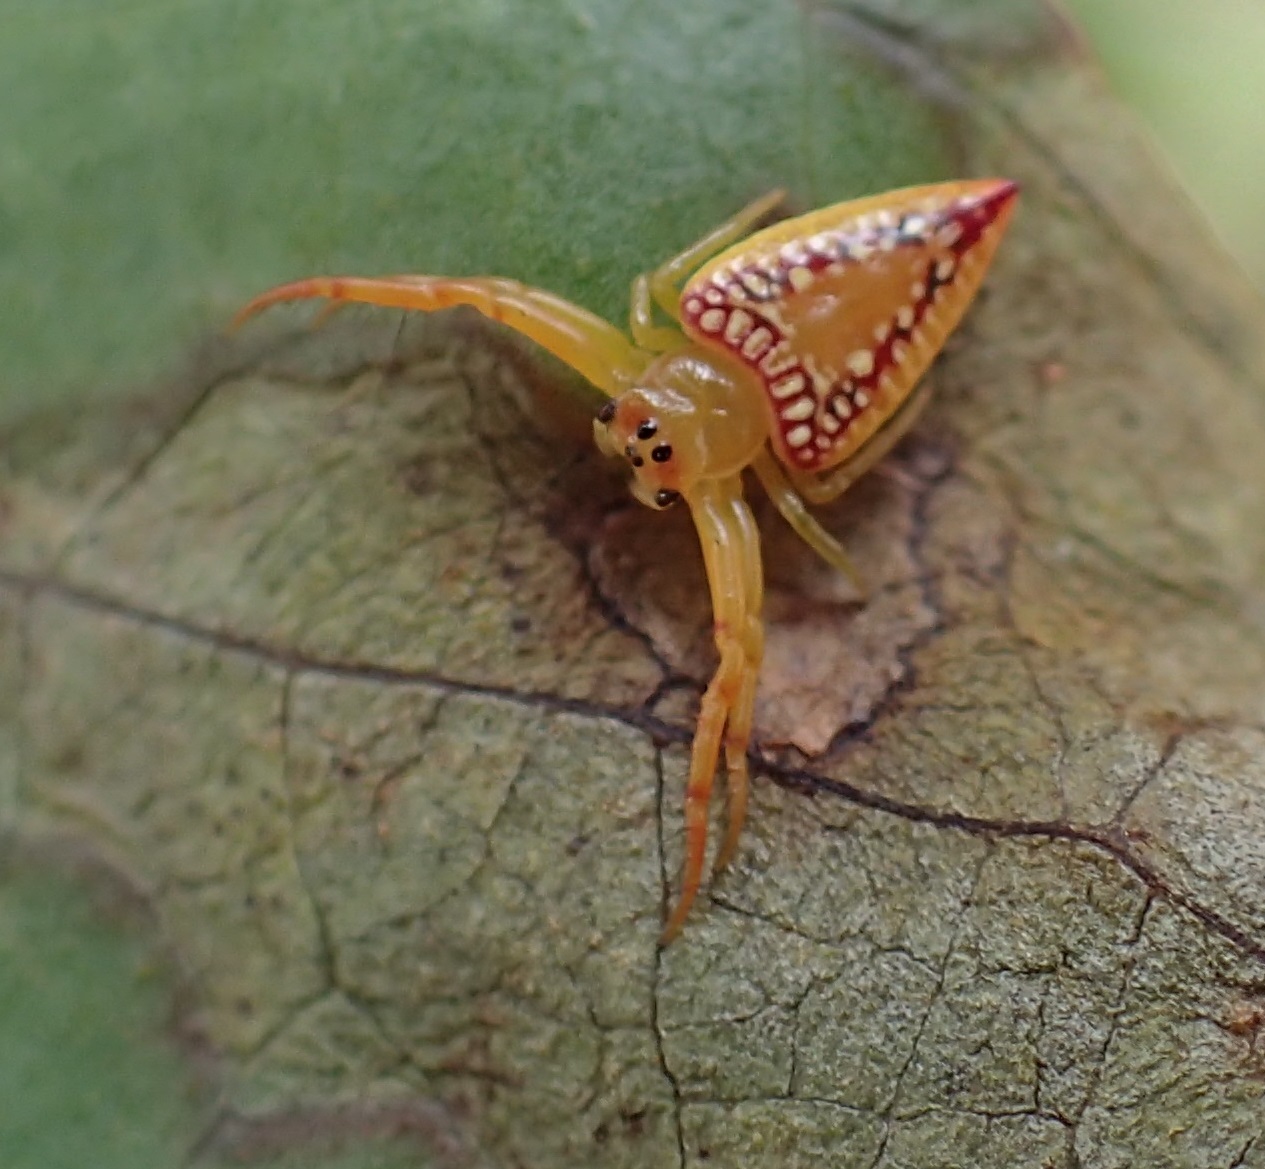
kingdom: Animalia
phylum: Arthropoda
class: Arachnida
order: Araneae
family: Arkyidae
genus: Arkys
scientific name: Arkys walckenaeri
